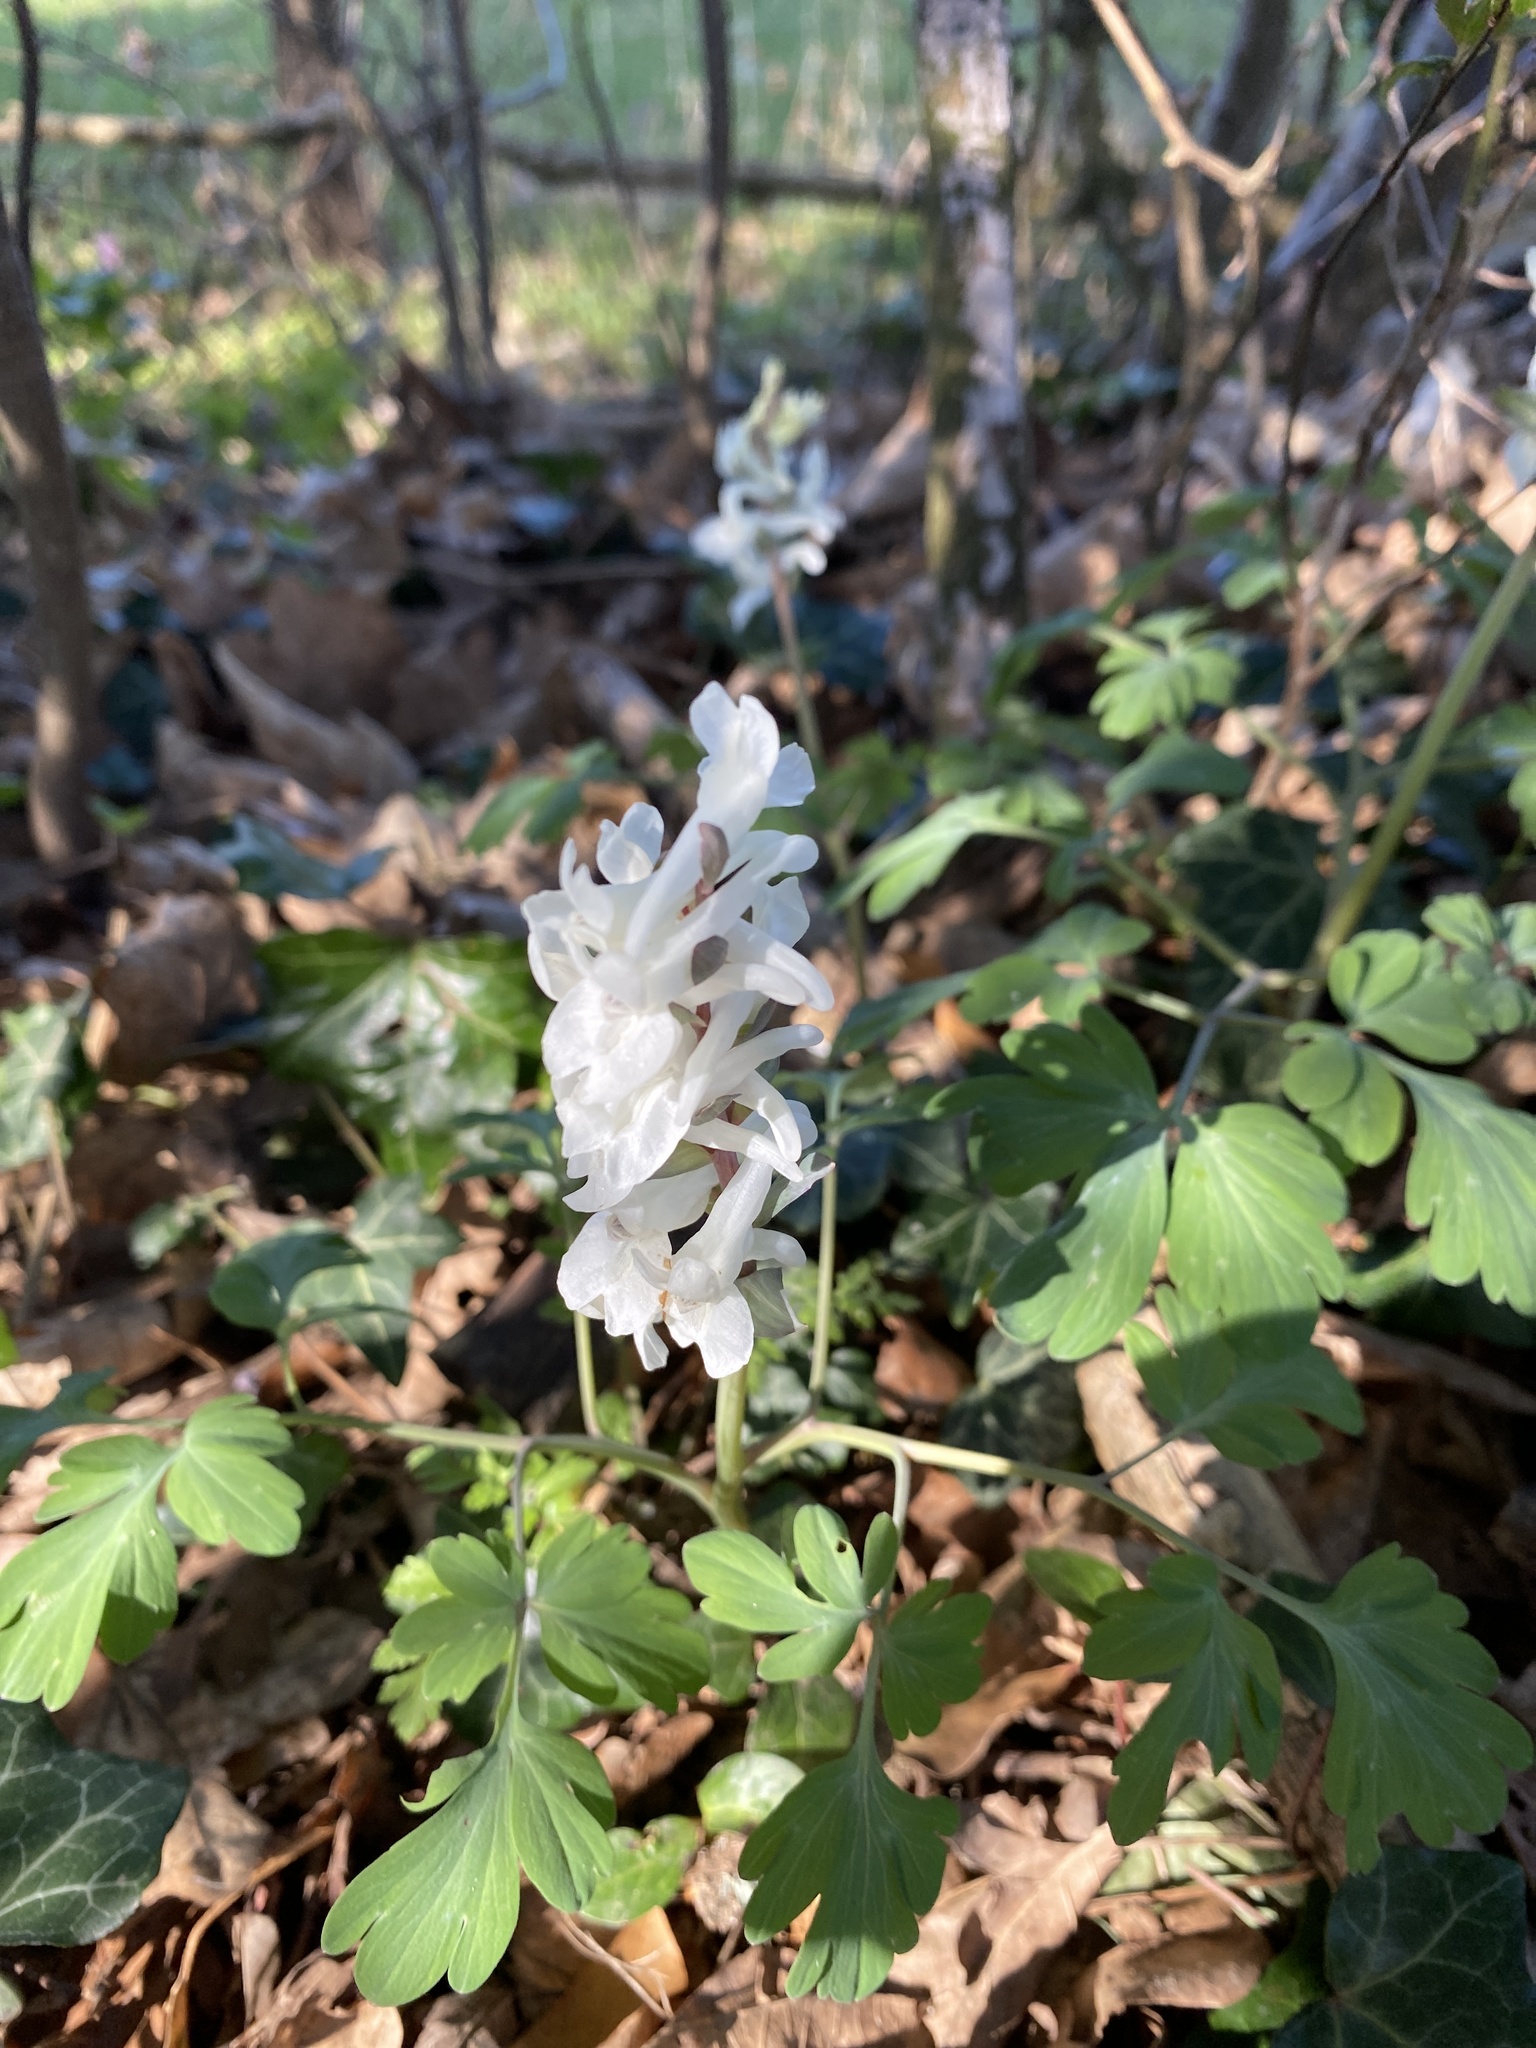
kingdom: Plantae
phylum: Tracheophyta
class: Magnoliopsida
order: Ranunculales
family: Papaveraceae
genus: Corydalis
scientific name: Corydalis cava
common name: Hollowroot
